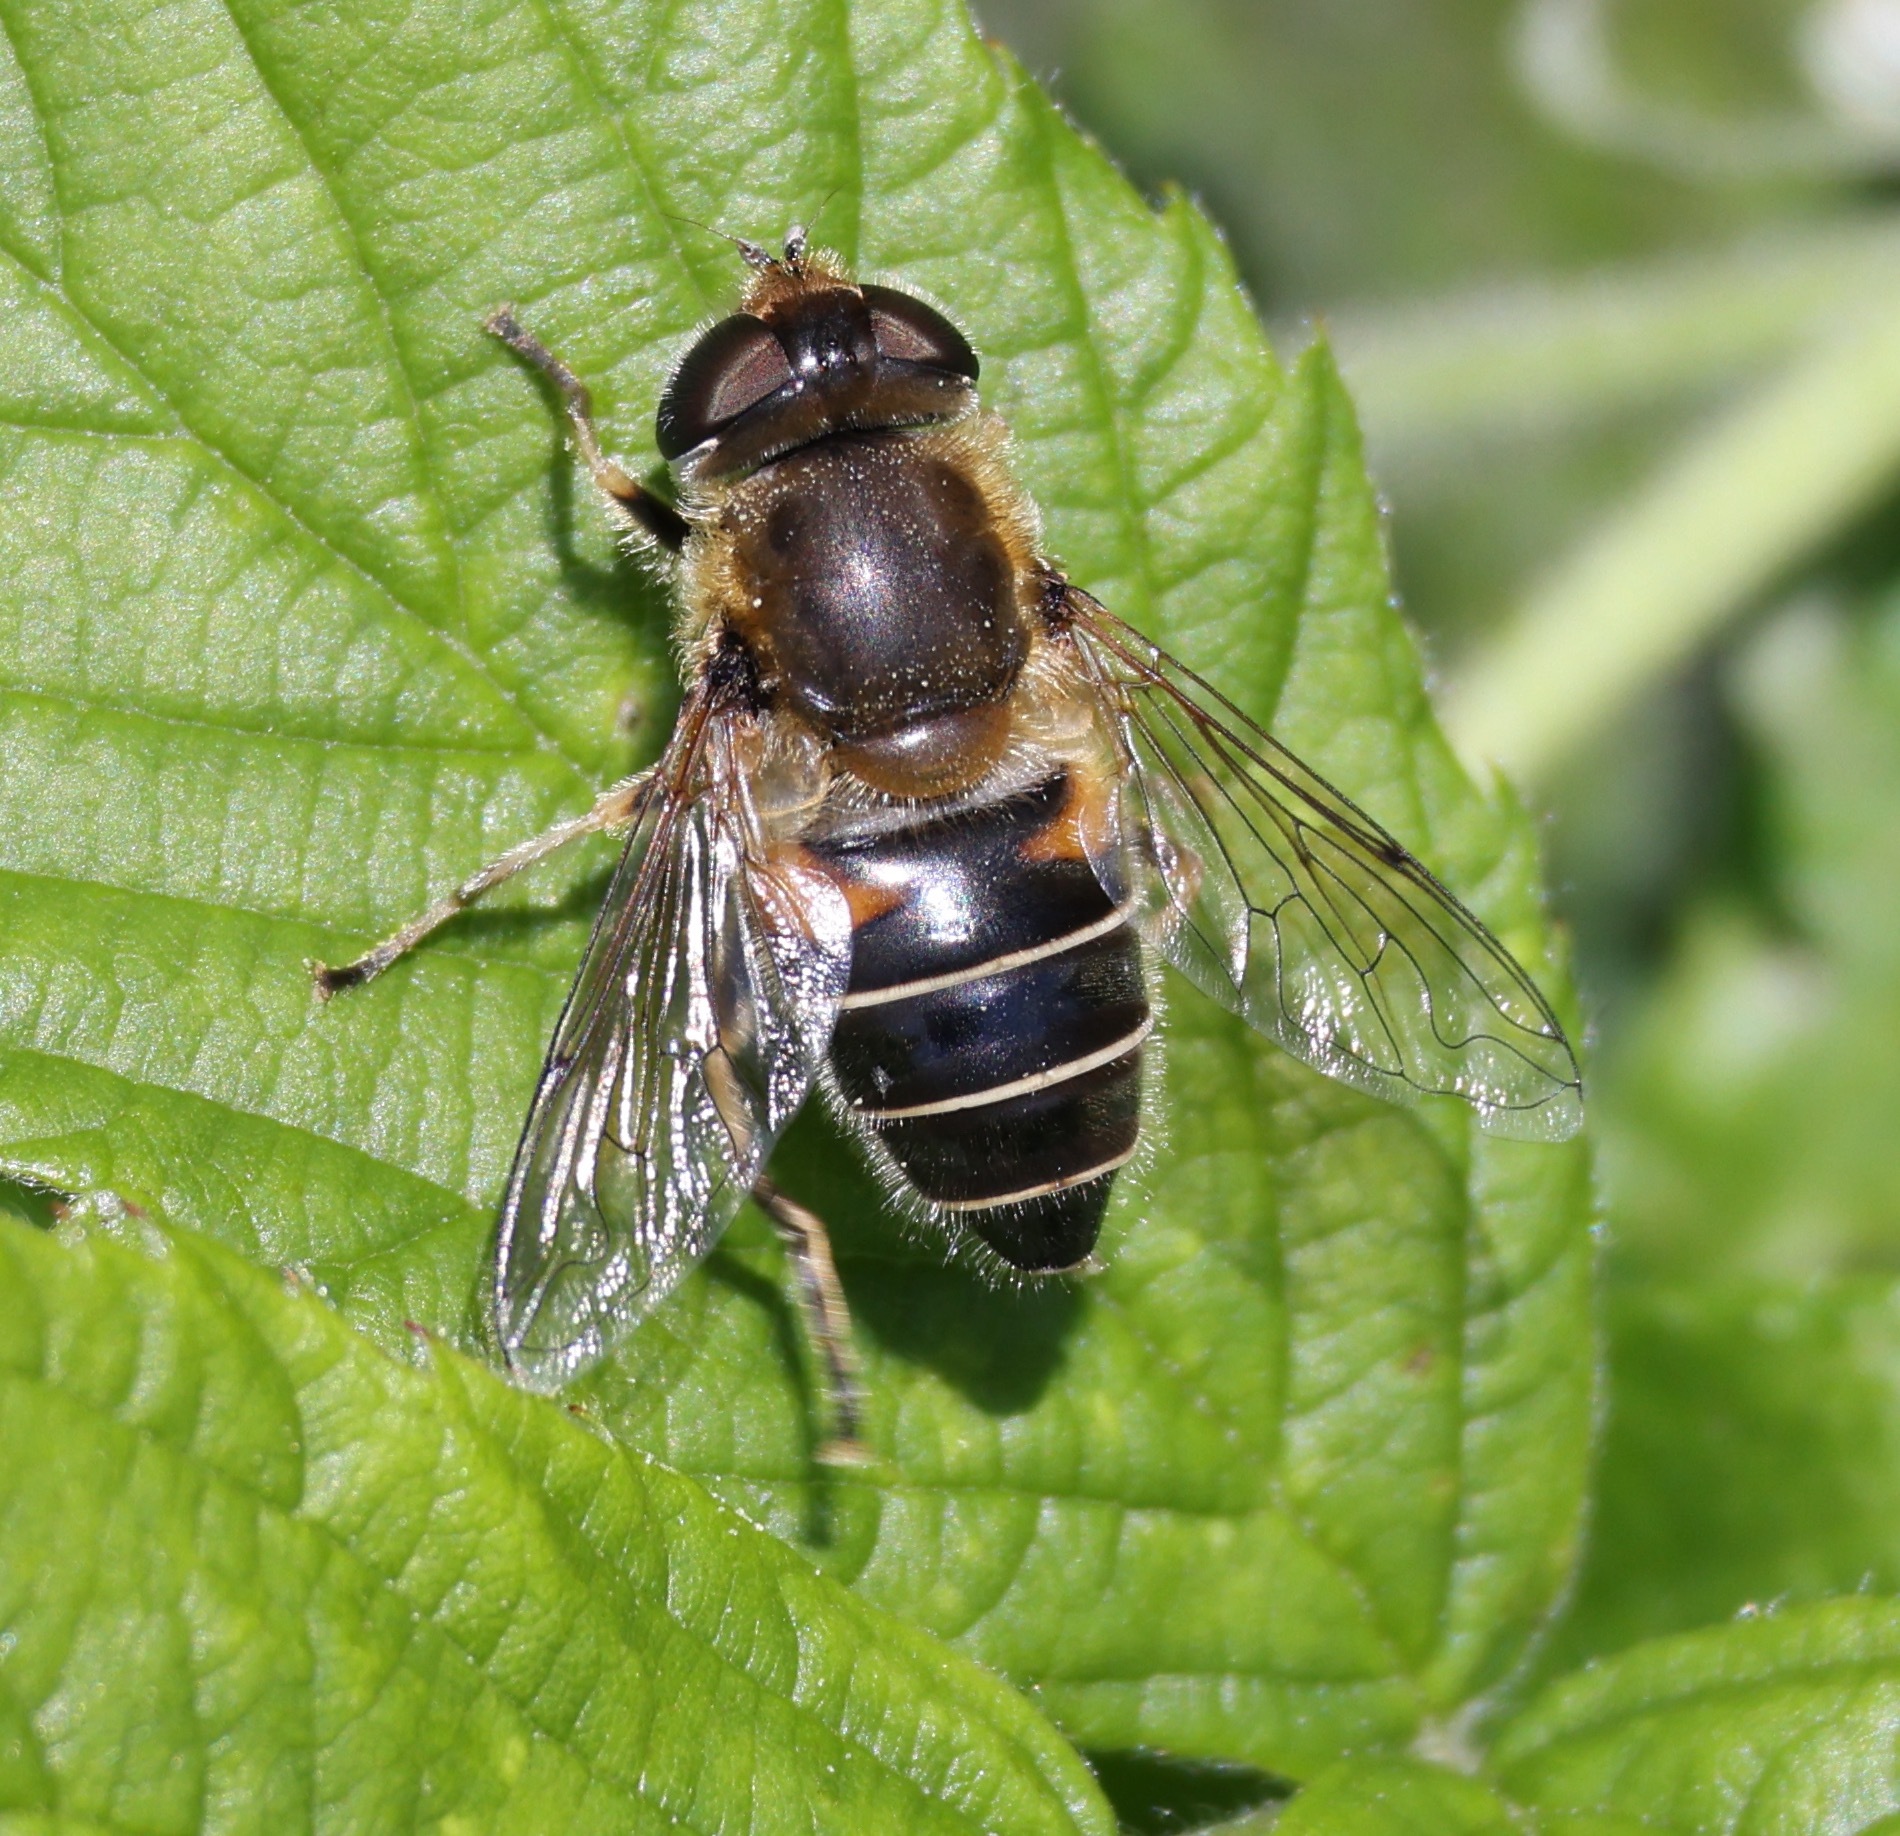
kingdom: Animalia
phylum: Arthropoda
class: Insecta
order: Diptera
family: Syrphidae
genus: Eristalis
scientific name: Eristalis nemorum
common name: Orange-spined drone fly
